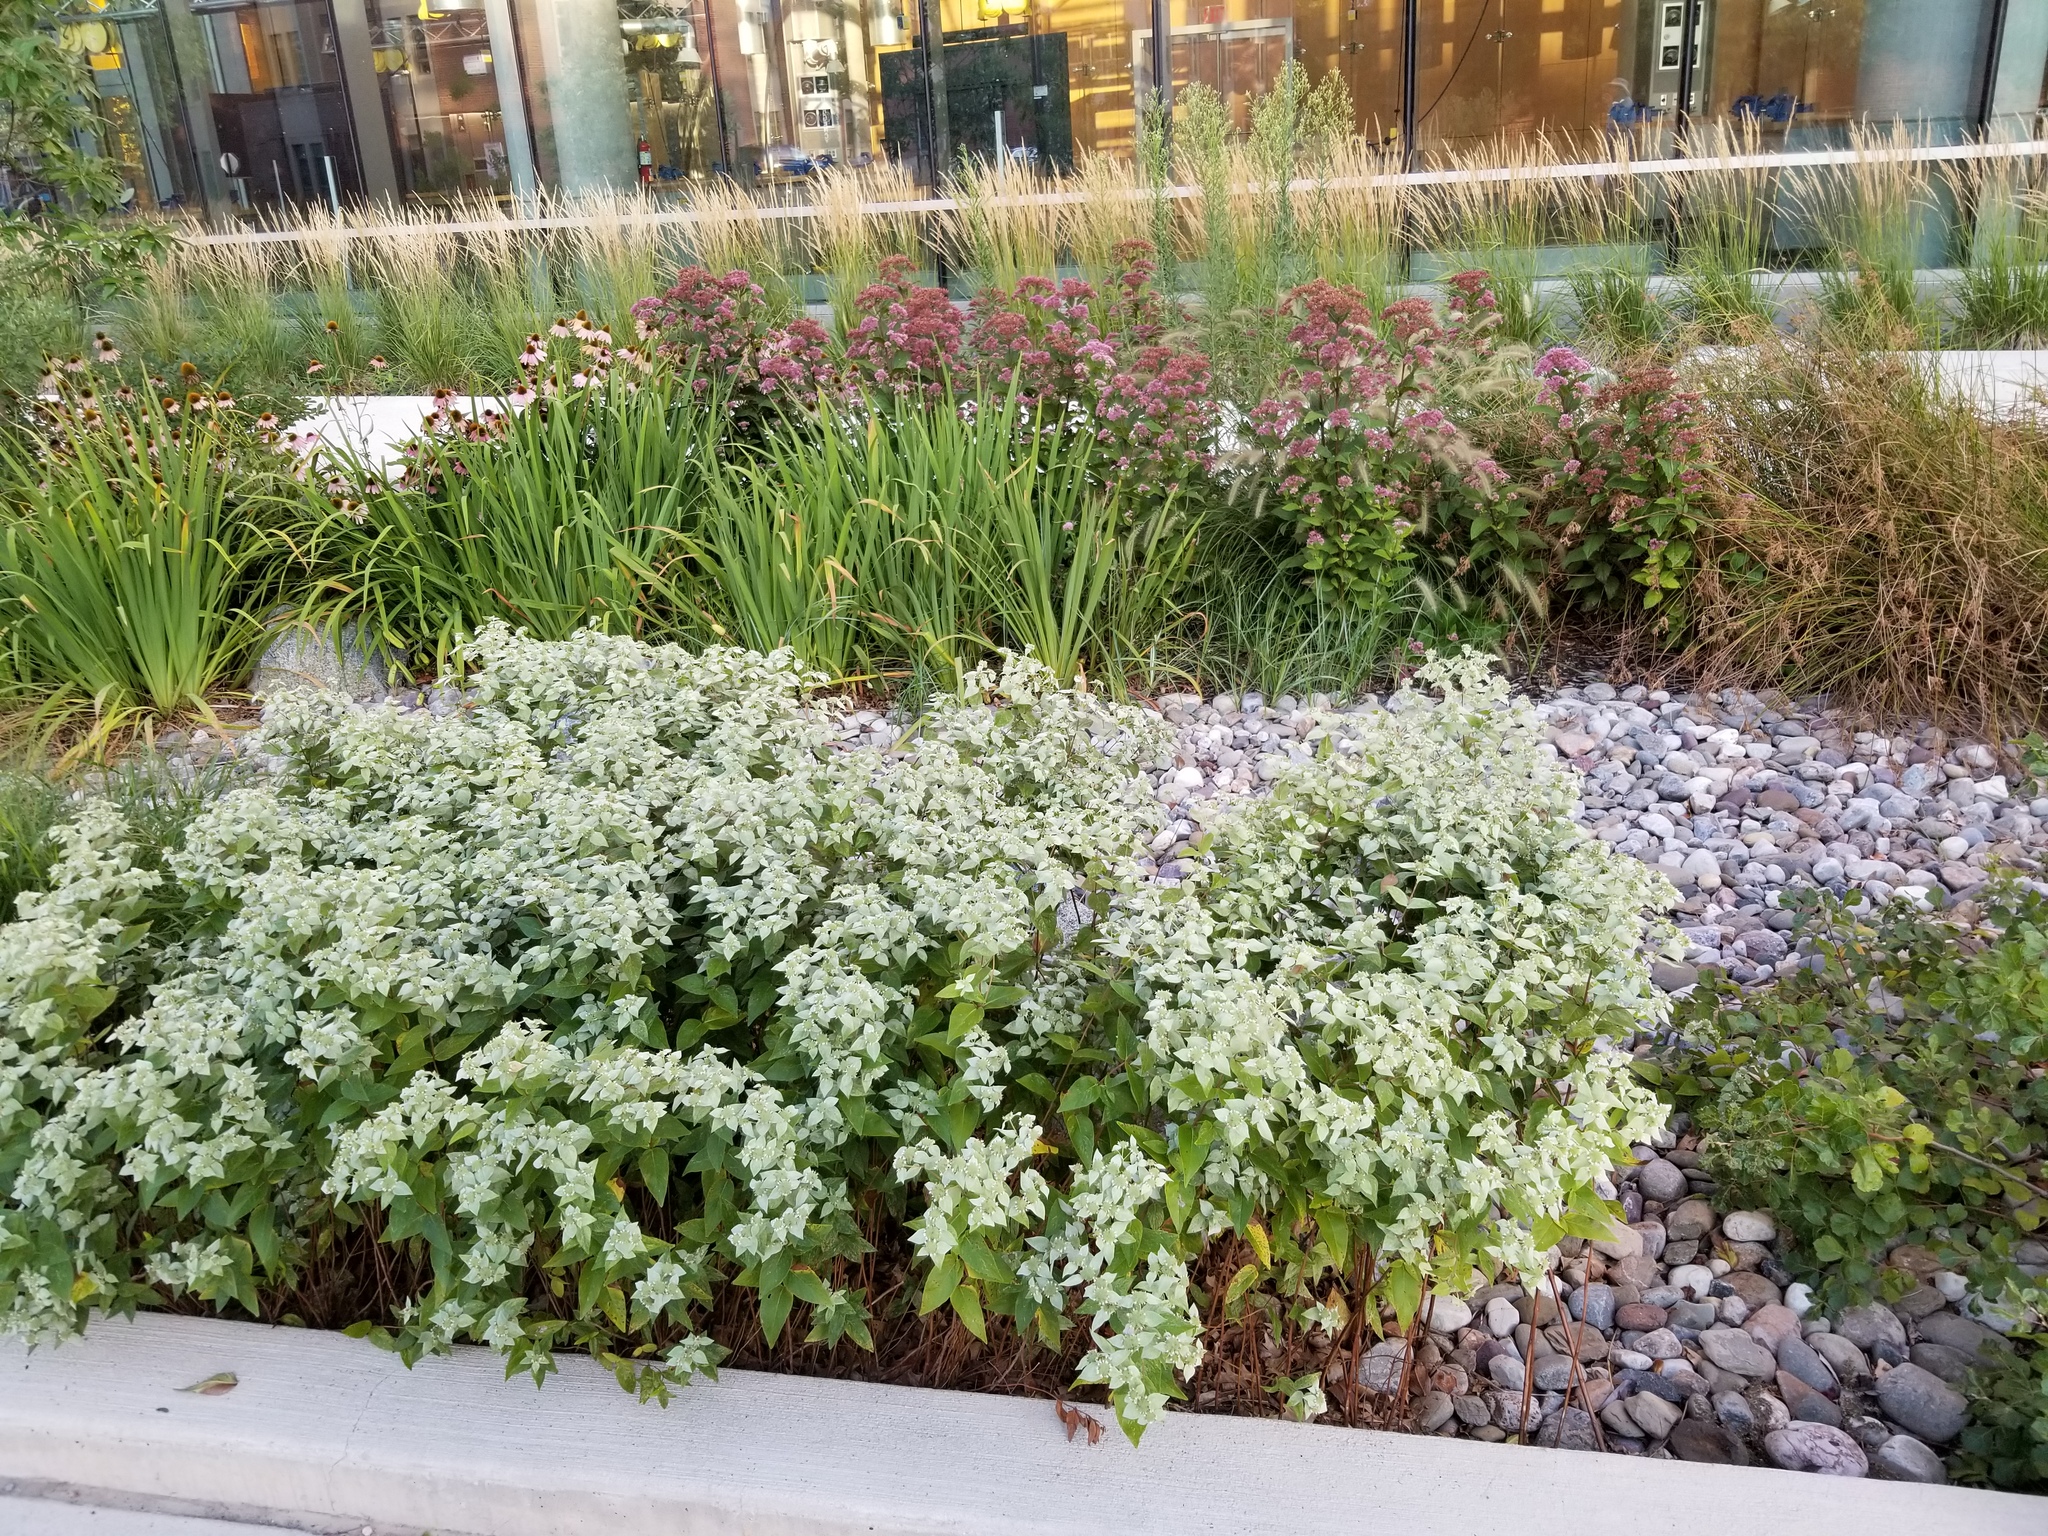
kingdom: Plantae
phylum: Tracheophyta
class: Magnoliopsida
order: Lamiales
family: Lamiaceae
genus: Pycnanthemum
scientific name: Pycnanthemum muticum
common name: Blunt mountain-mint
